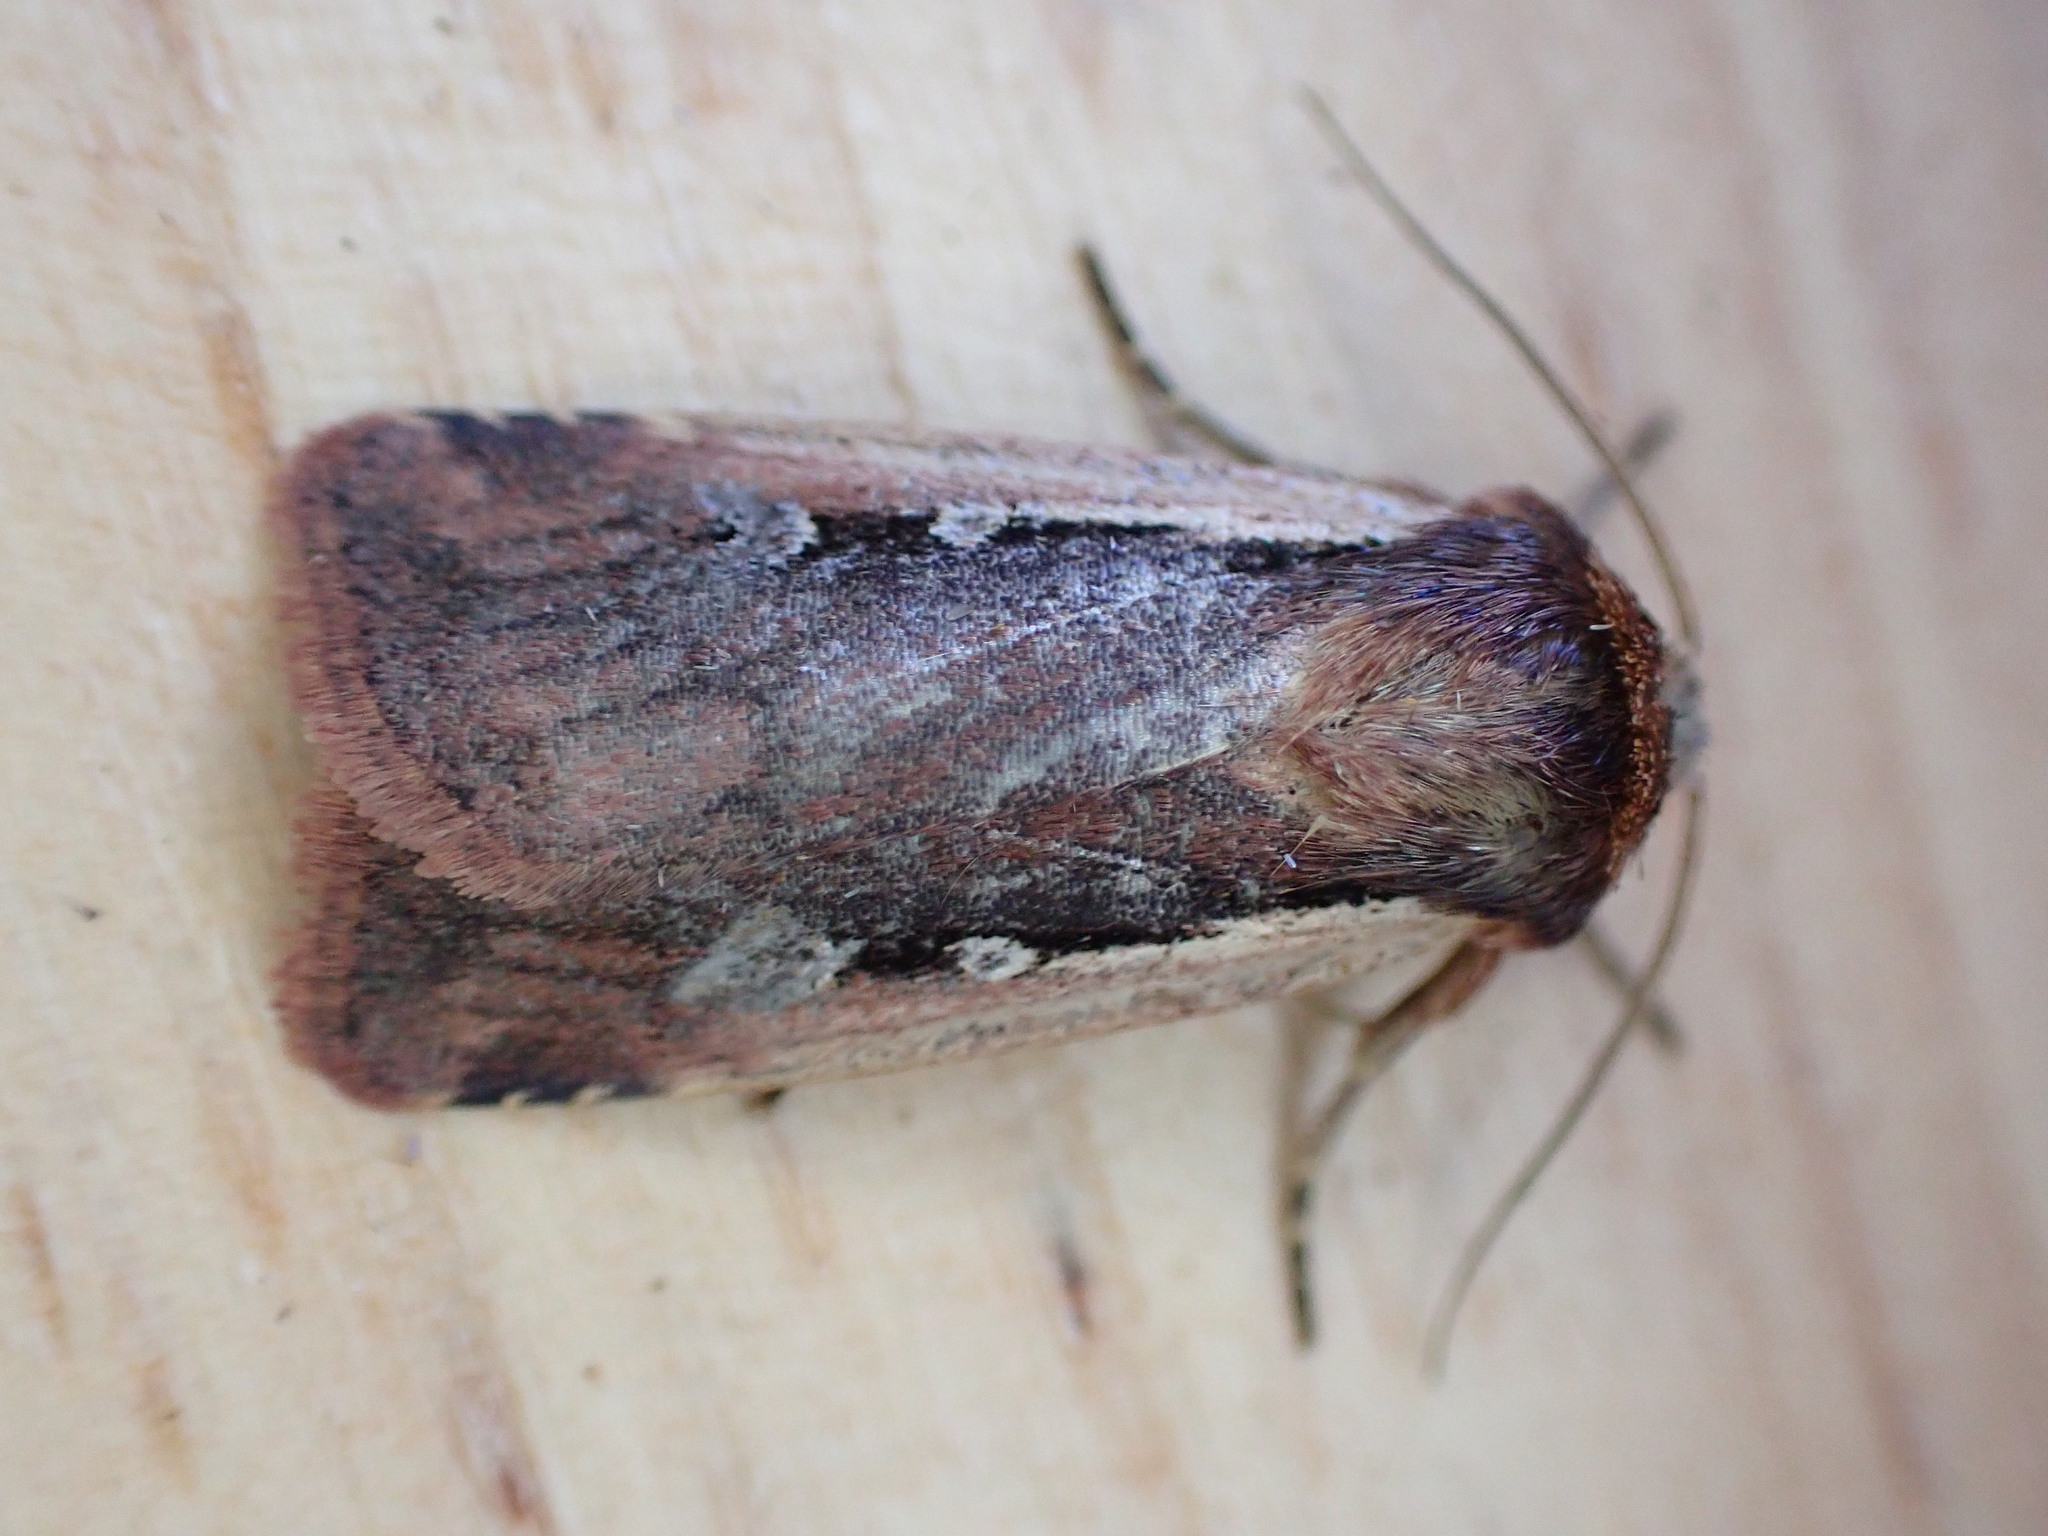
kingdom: Animalia
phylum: Arthropoda
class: Insecta
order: Lepidoptera
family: Noctuidae
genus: Ochropleura
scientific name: Ochropleura plecta
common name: Flame shoulder
